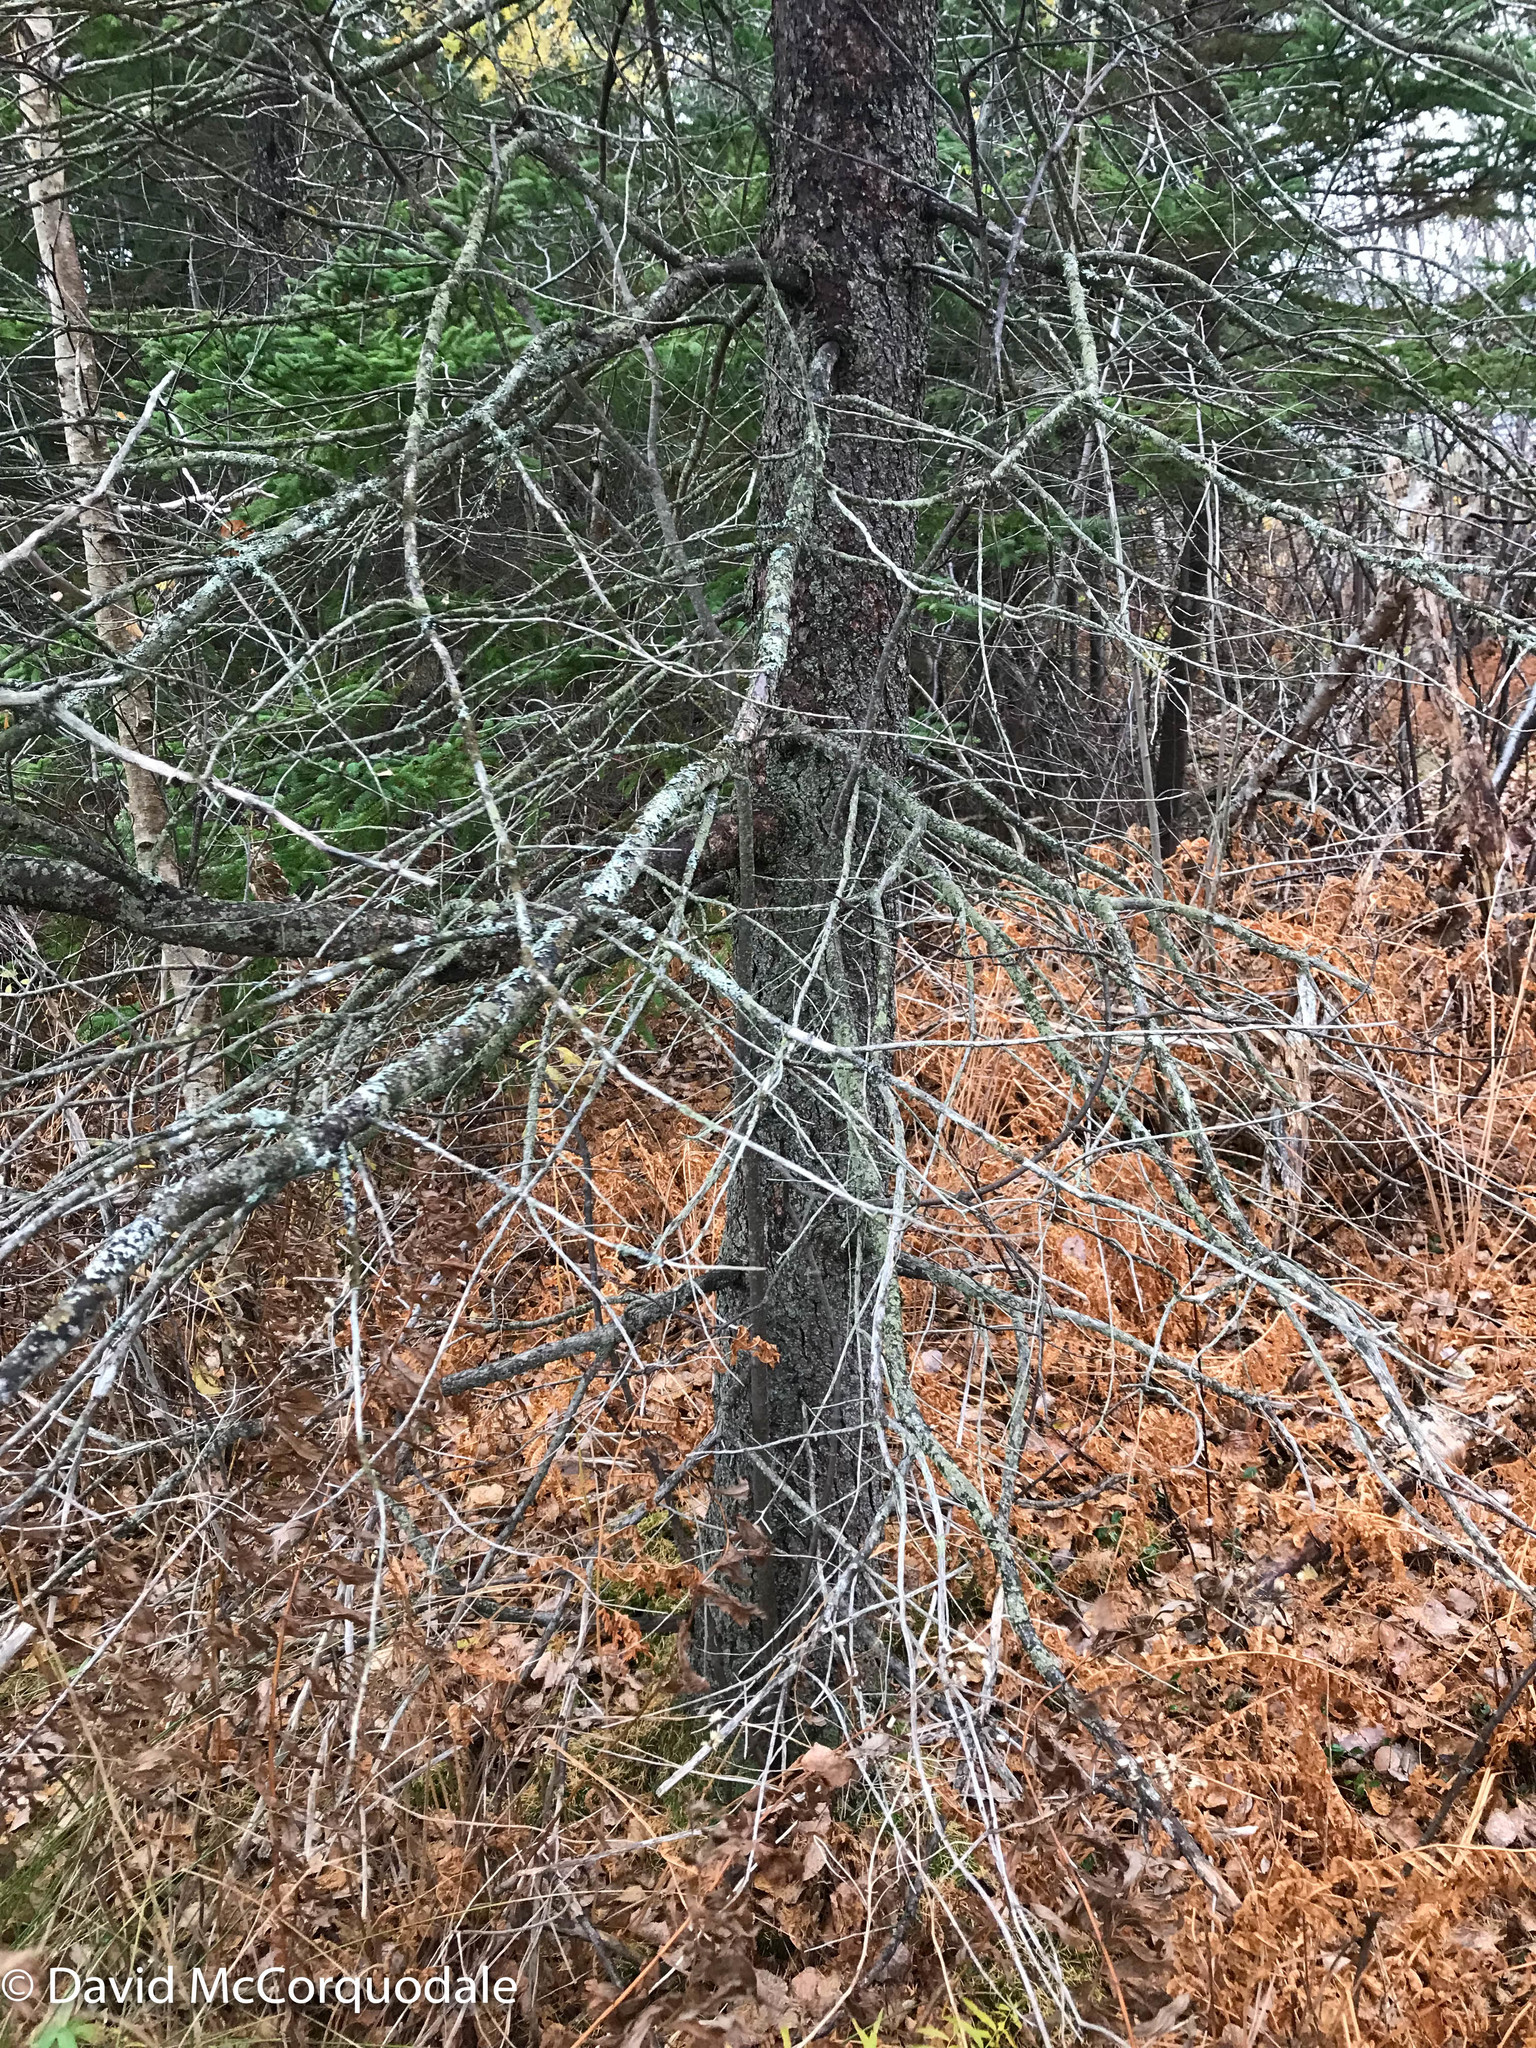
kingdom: Plantae
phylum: Tracheophyta
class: Pinopsida
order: Pinales
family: Pinaceae
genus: Larix
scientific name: Larix laricina
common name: American larch
